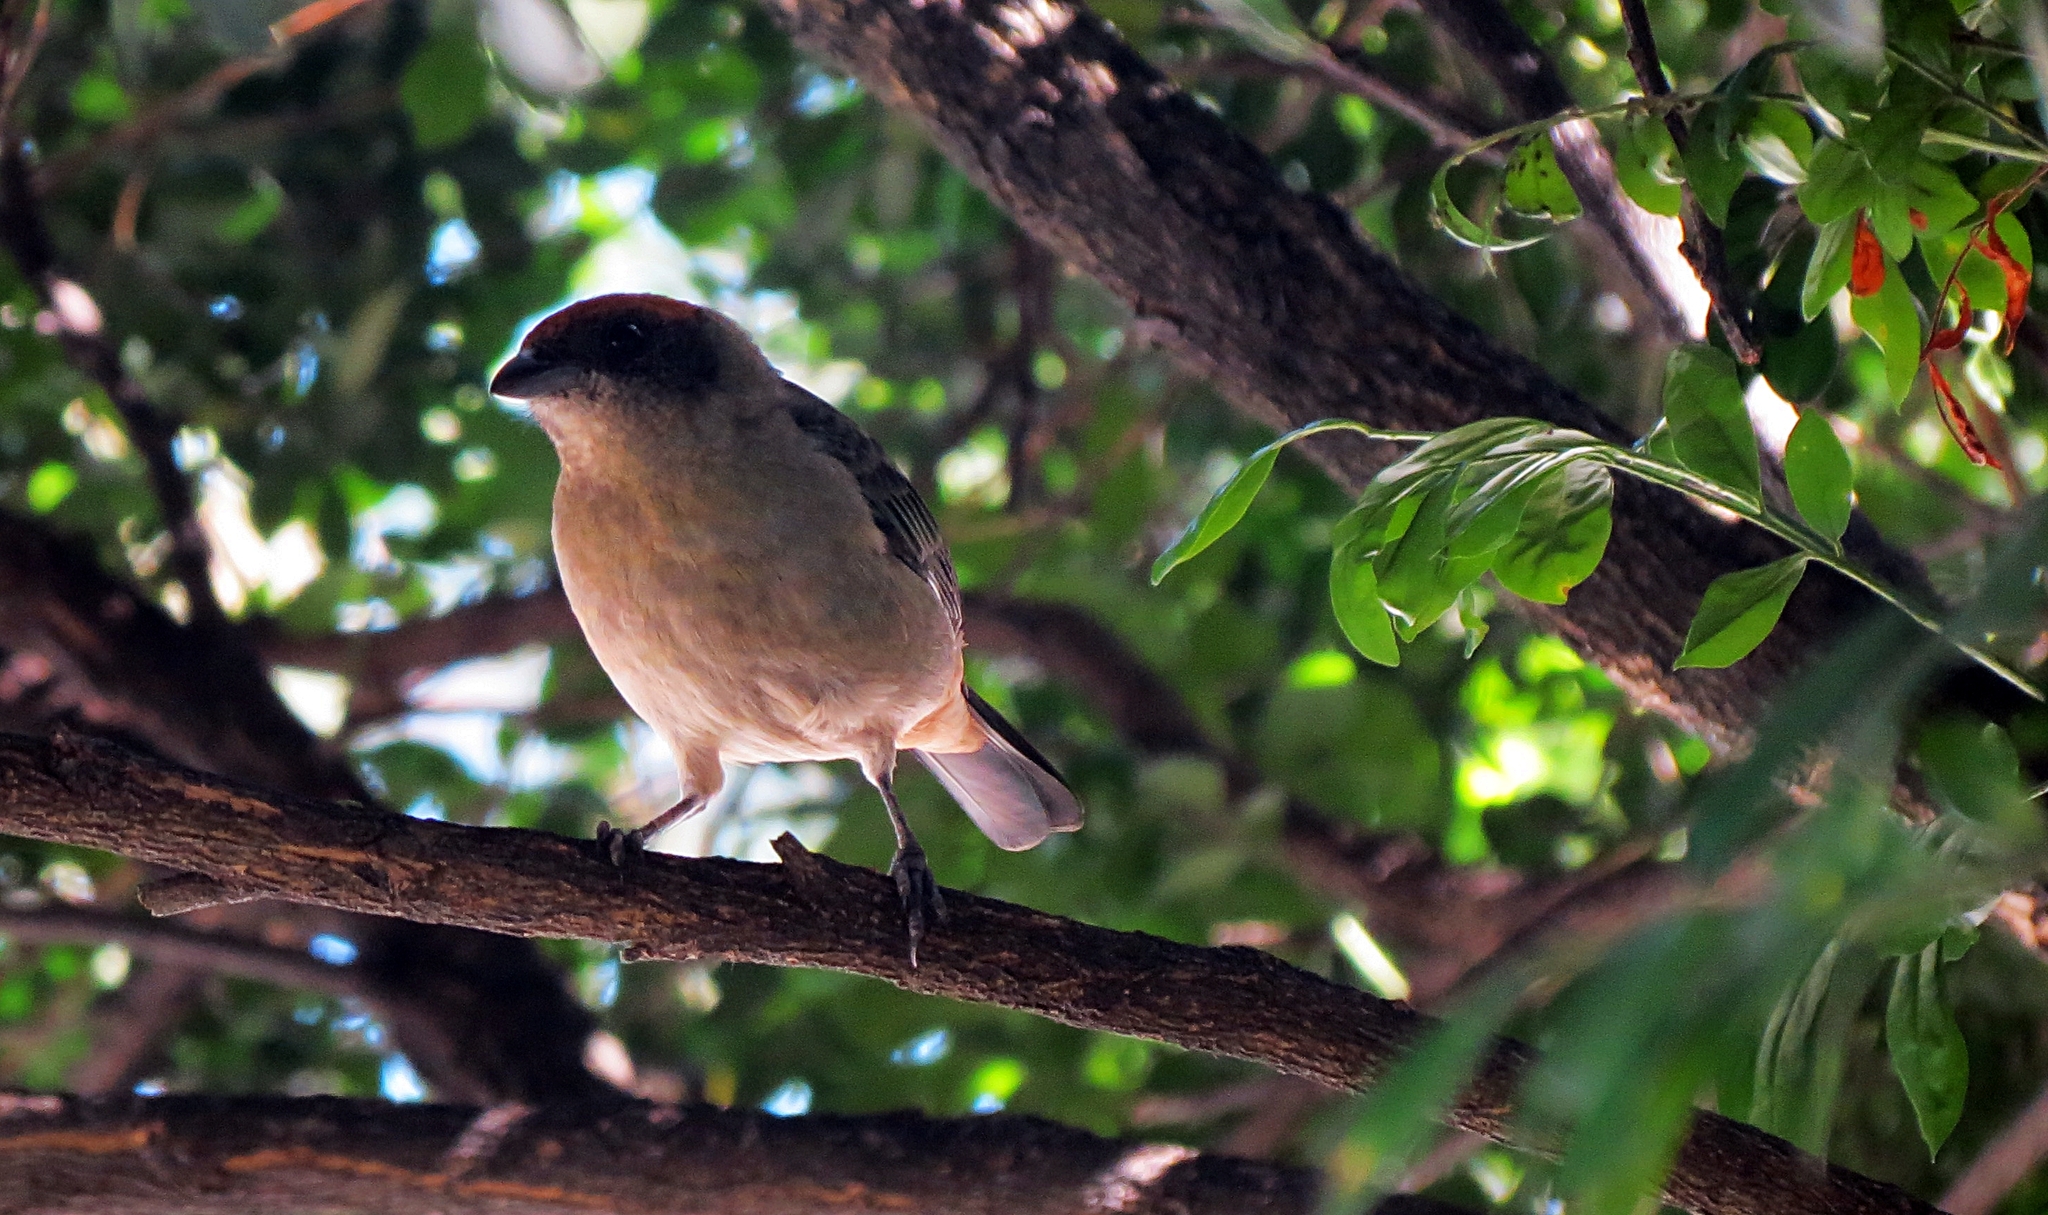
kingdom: Animalia
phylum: Chordata
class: Aves
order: Passeriformes
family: Thraupidae
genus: Stilpnia
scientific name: Stilpnia vitriolina
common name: Scrub tanager
